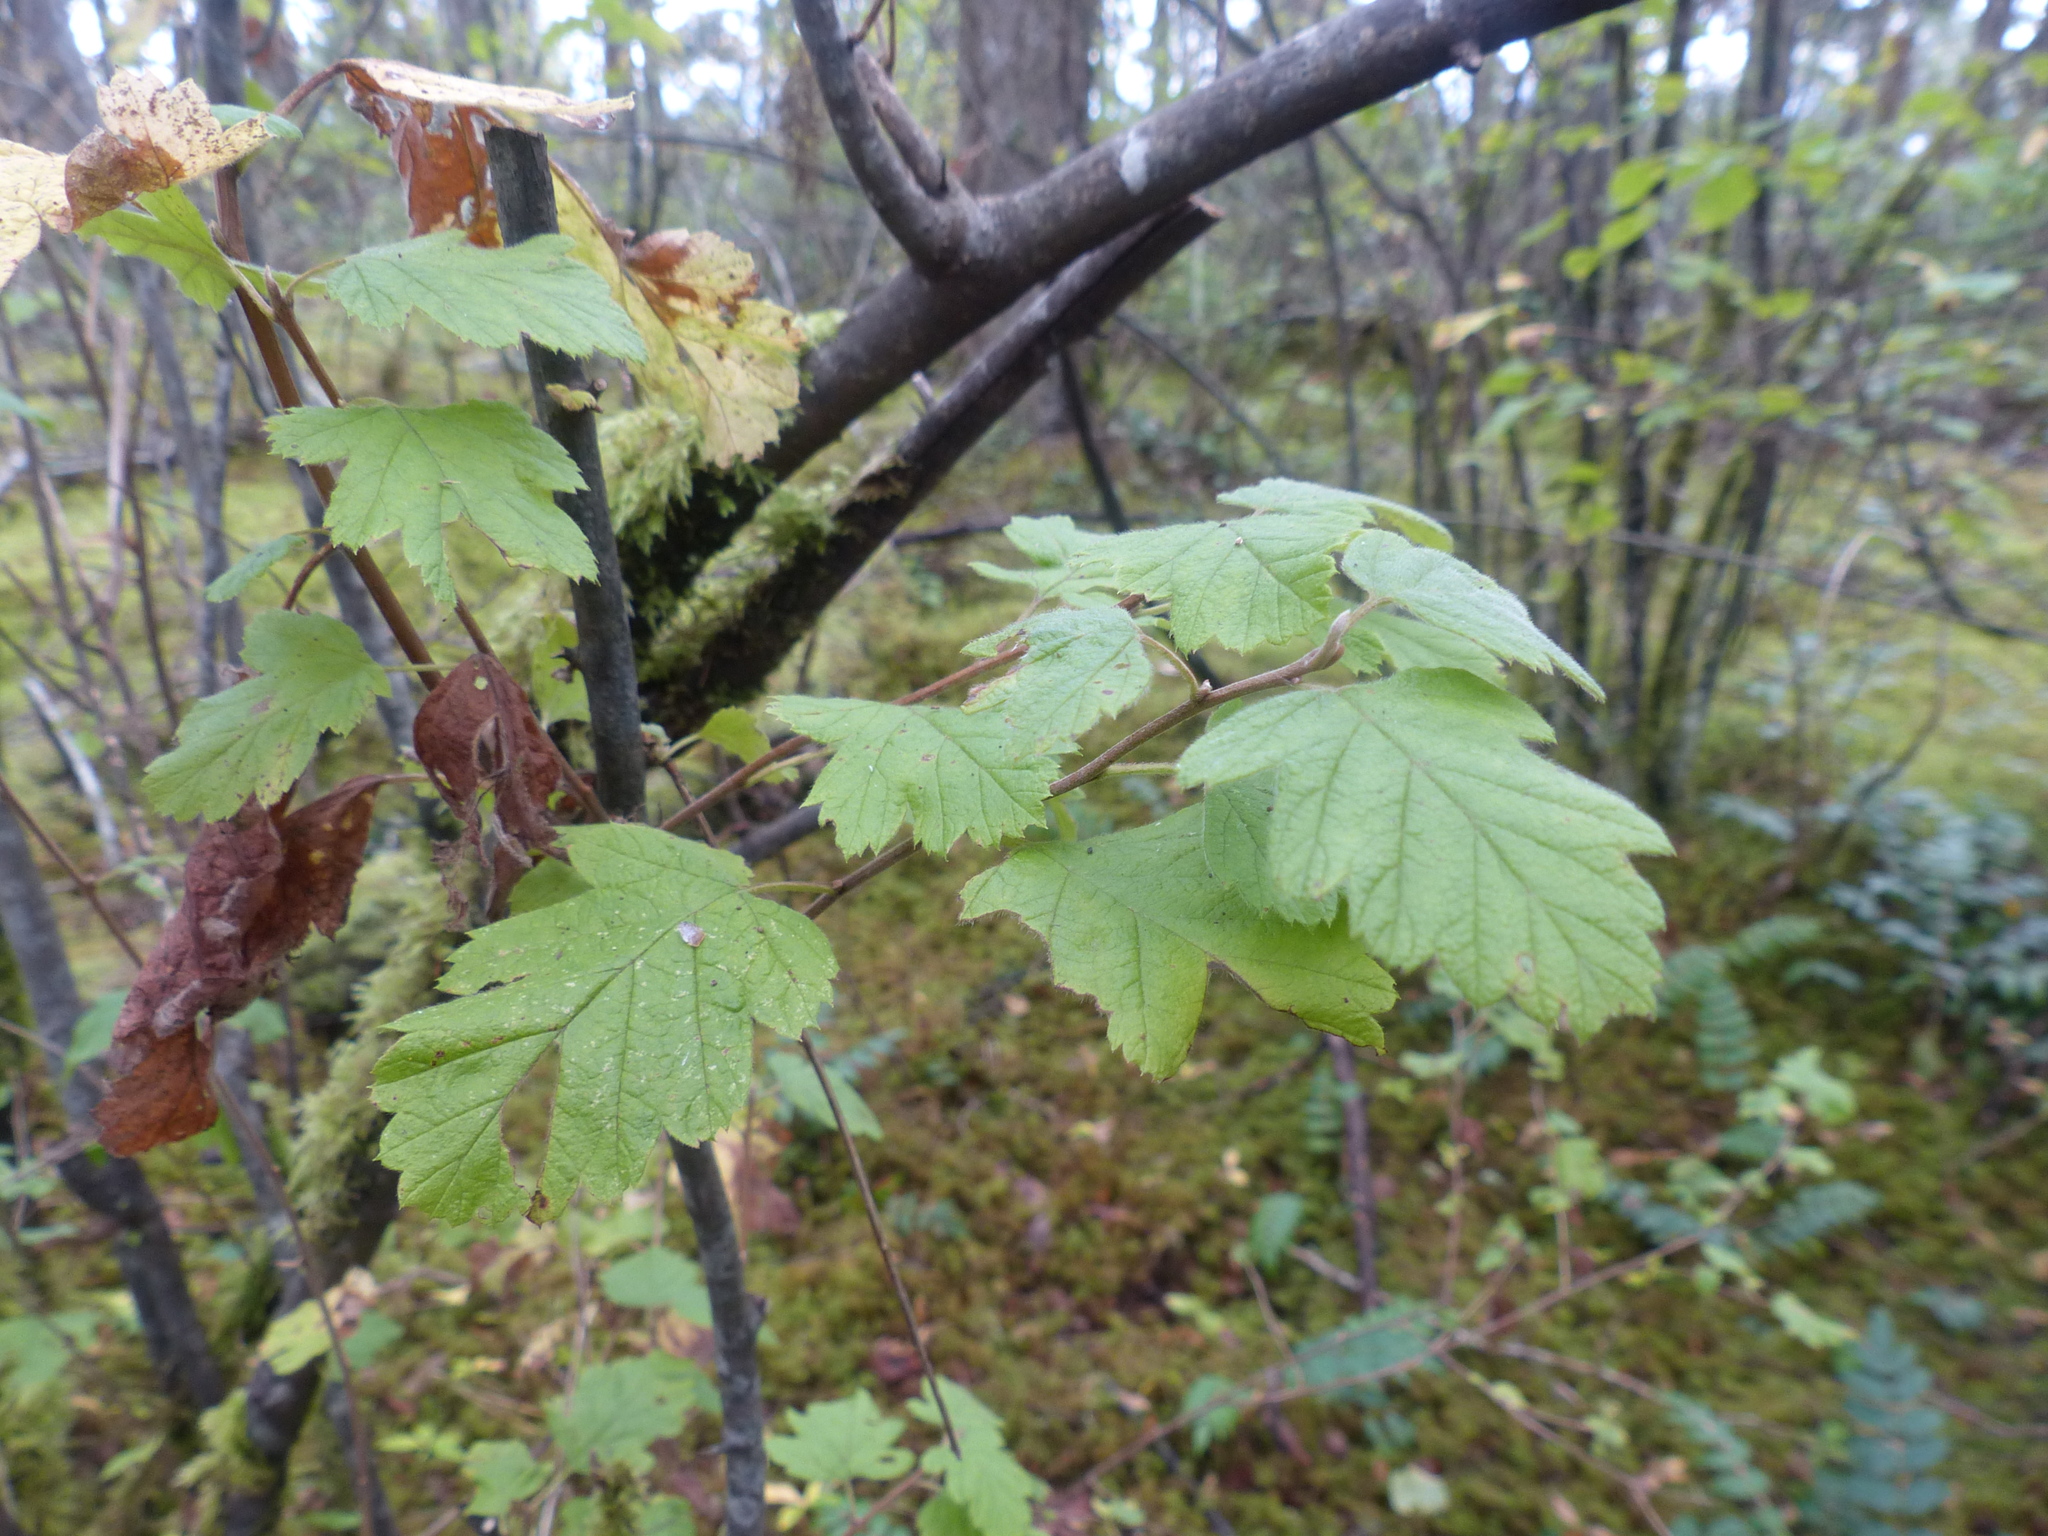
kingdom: Plantae
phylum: Tracheophyta
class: Magnoliopsida
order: Rosales
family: Rosaceae
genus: Holodiscus
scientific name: Holodiscus discolor
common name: Oceanspray
